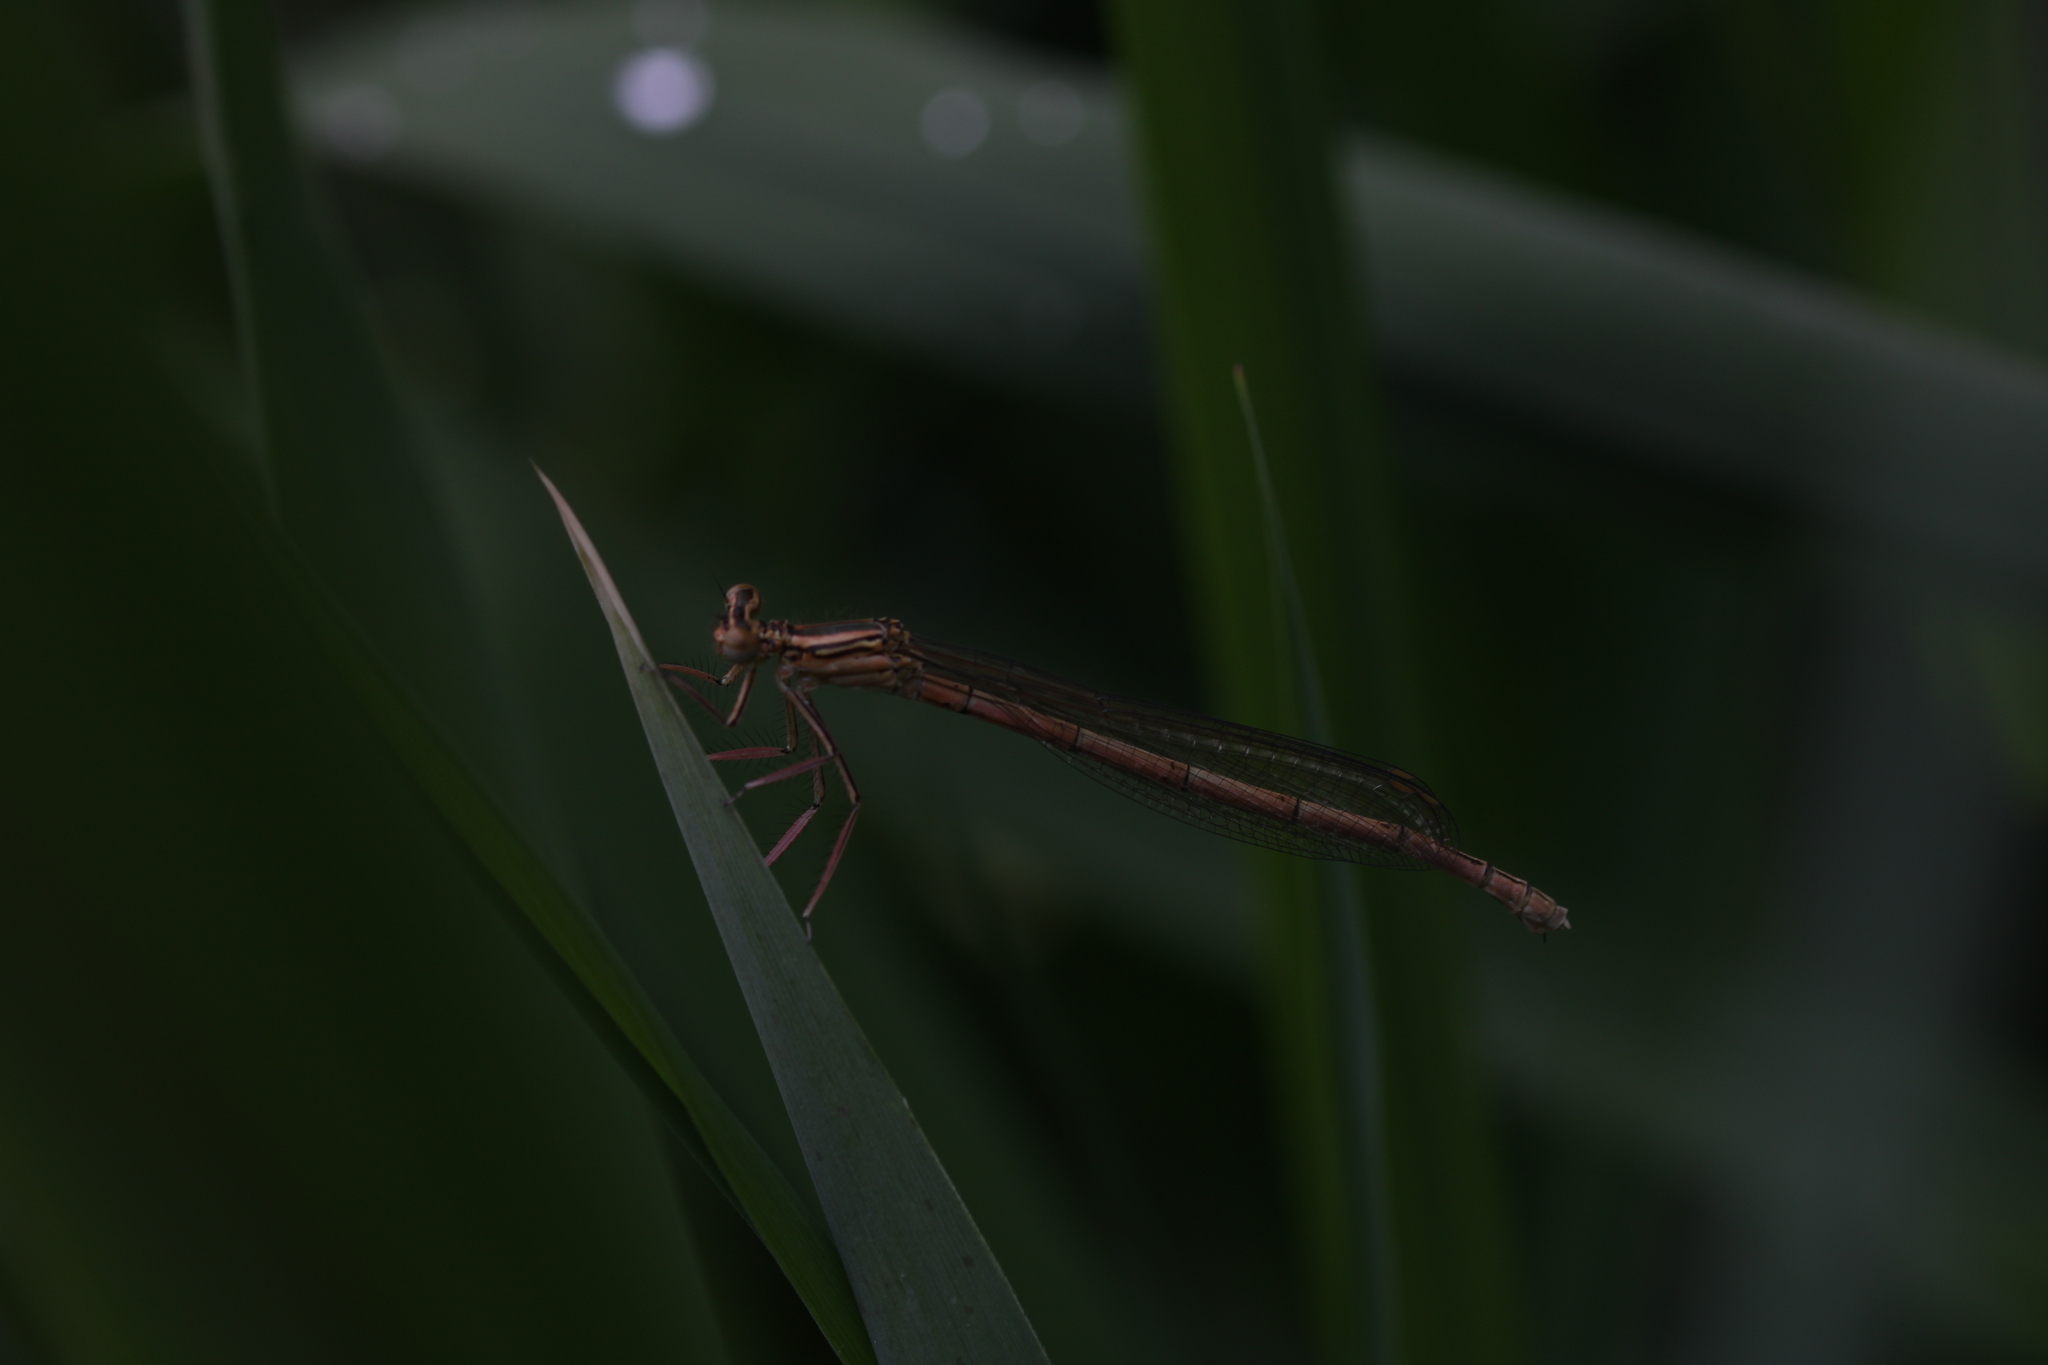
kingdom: Animalia
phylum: Arthropoda
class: Insecta
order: Odonata
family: Platycnemididae
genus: Platycnemis
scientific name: Platycnemis pennipes
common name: White-legged damselfly
